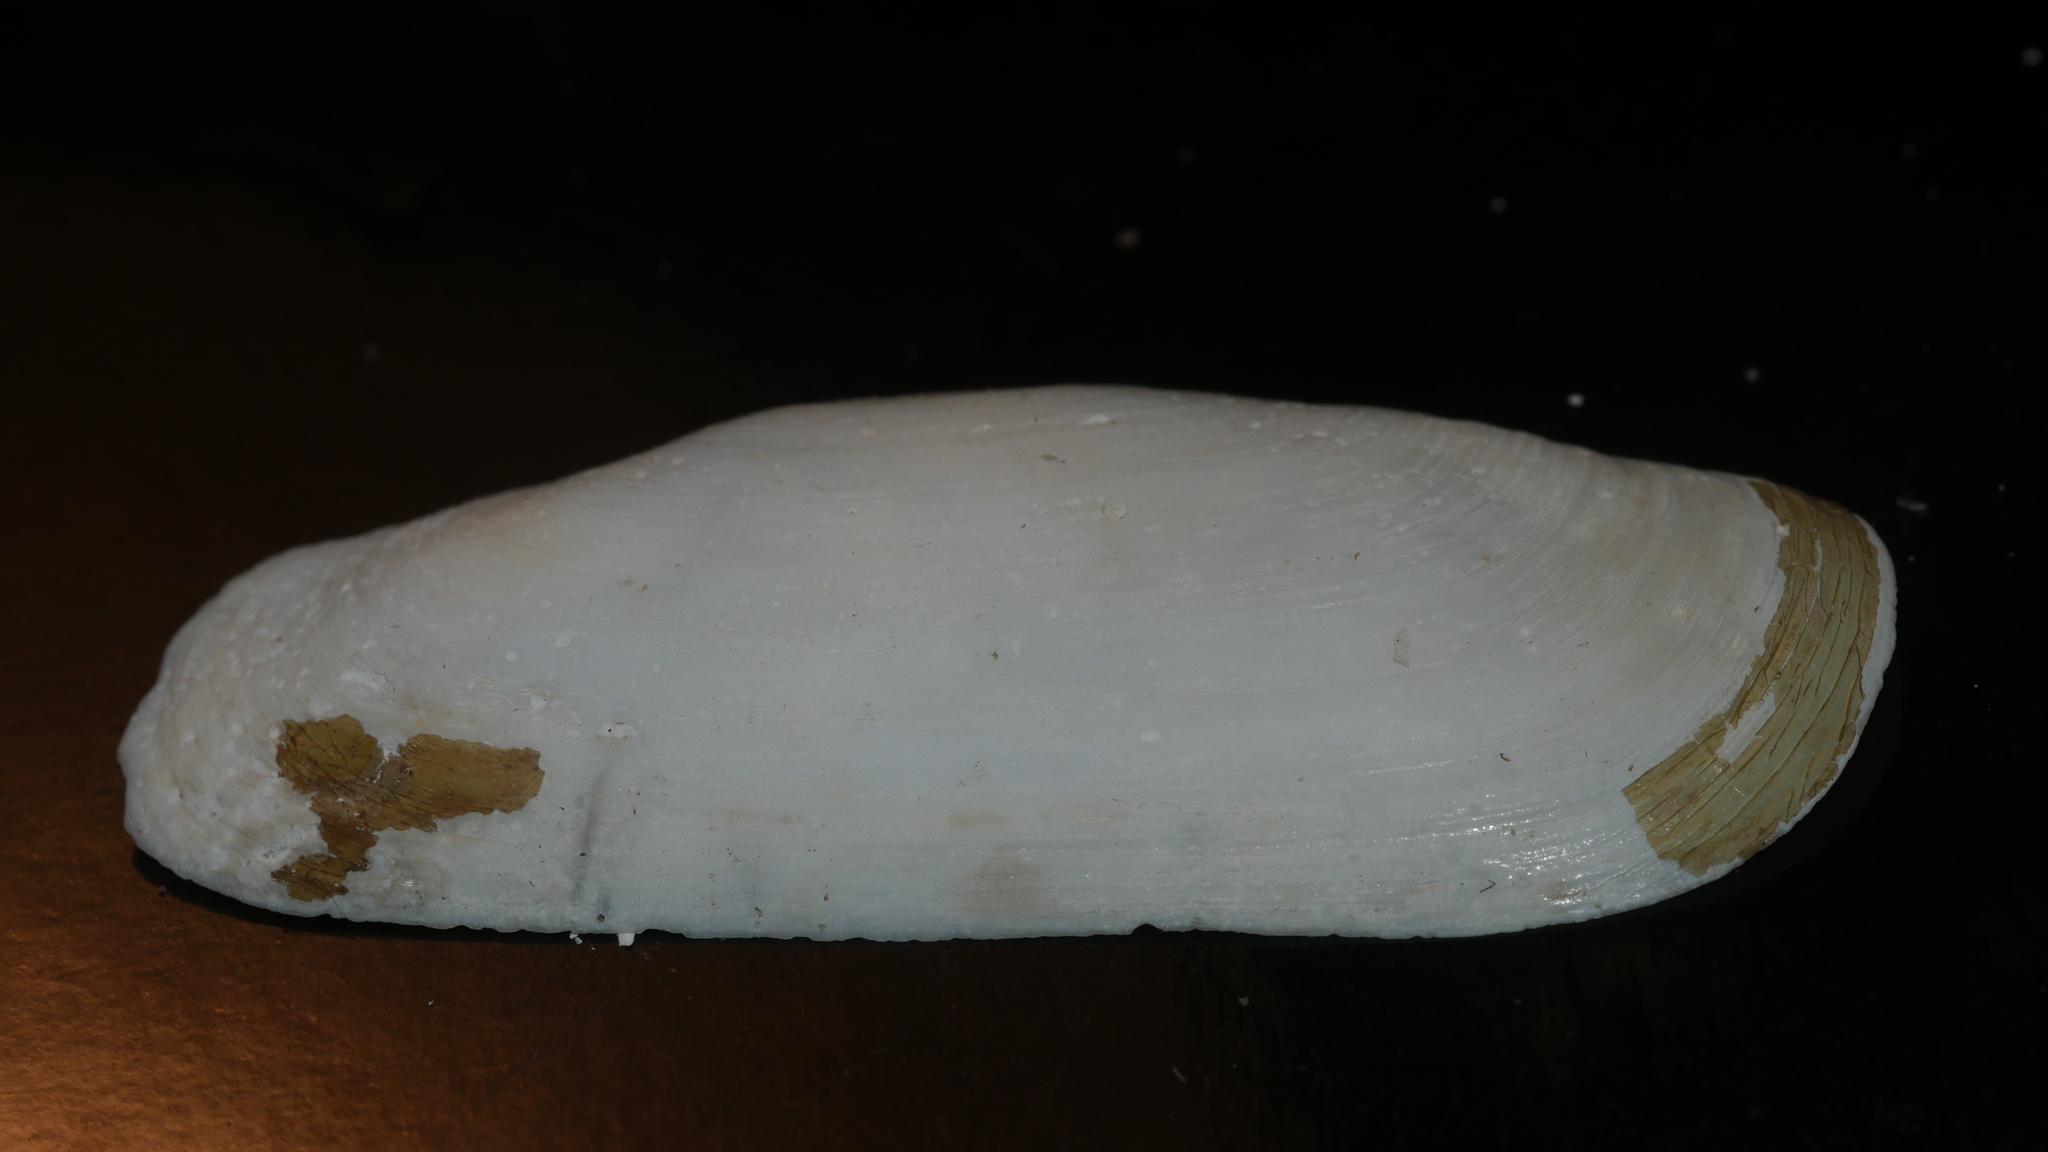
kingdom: Animalia
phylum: Mollusca
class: Bivalvia
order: Cardiida
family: Solecurtidae
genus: Tagelus
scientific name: Tagelus plebeius
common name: Stout tagelus
